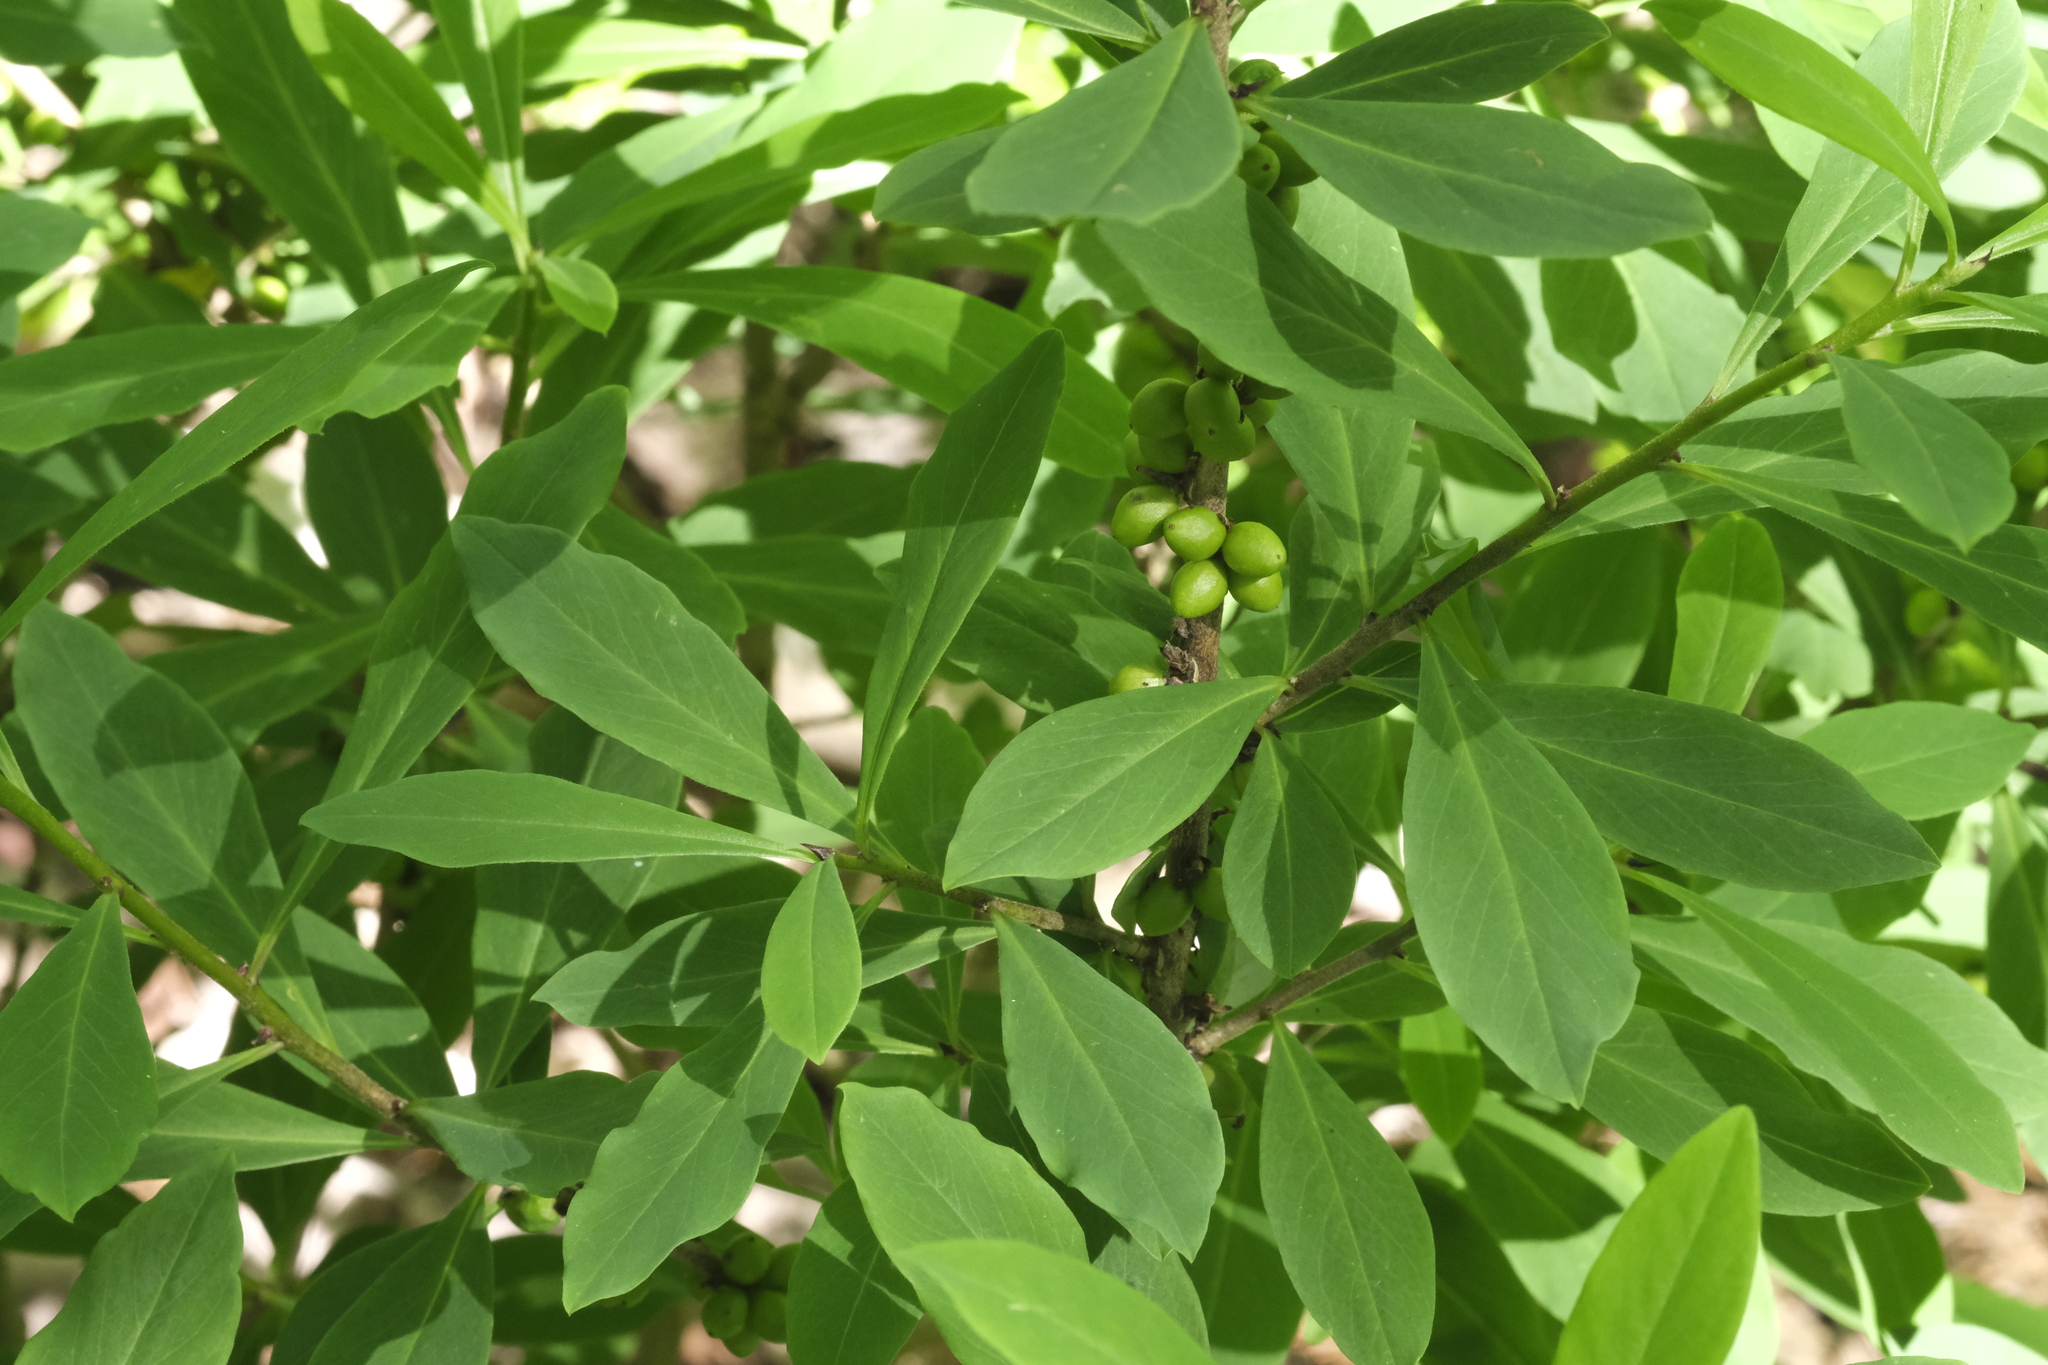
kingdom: Plantae
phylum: Tracheophyta
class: Magnoliopsida
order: Malvales
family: Thymelaeaceae
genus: Daphne
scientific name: Daphne mezereum
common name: Mezereon
